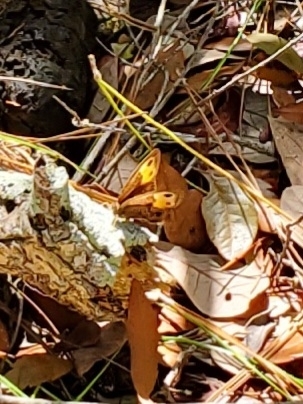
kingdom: Animalia
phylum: Arthropoda
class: Insecta
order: Lepidoptera
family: Nymphalidae
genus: Cercyonis
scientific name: Cercyonis pegala
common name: Common wood-nymph
